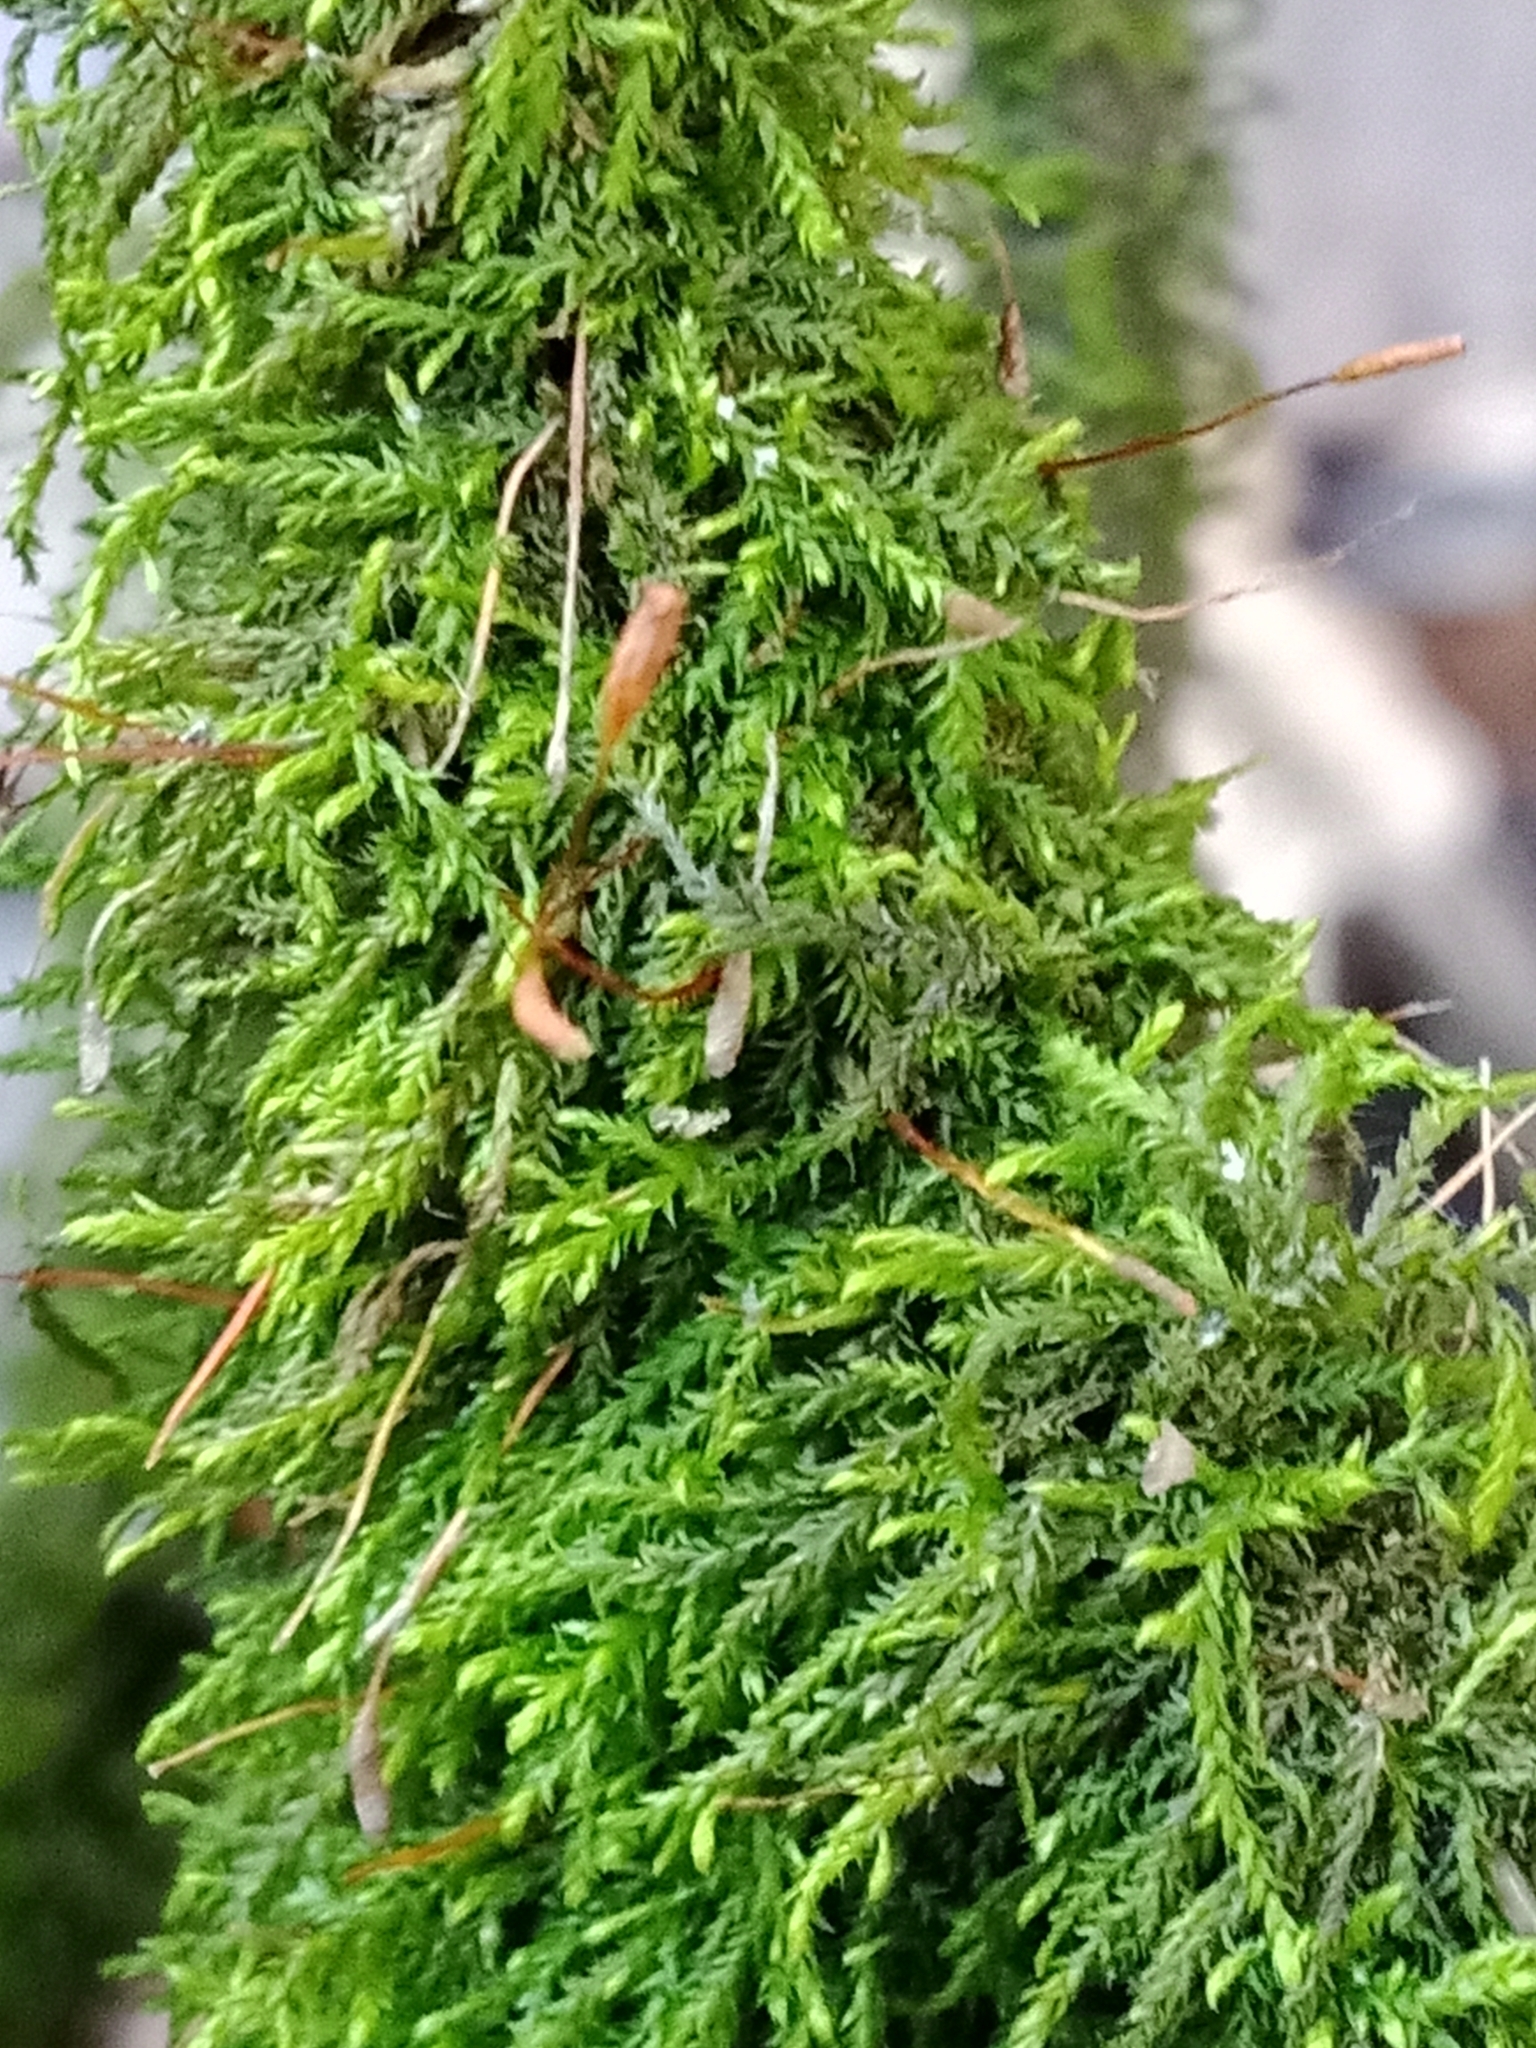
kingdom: Plantae
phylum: Bryophyta
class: Bryopsida
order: Hypnales
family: Leskeaceae
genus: Leskea
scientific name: Leskea polycarpa
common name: Many-fruited leske's moss
